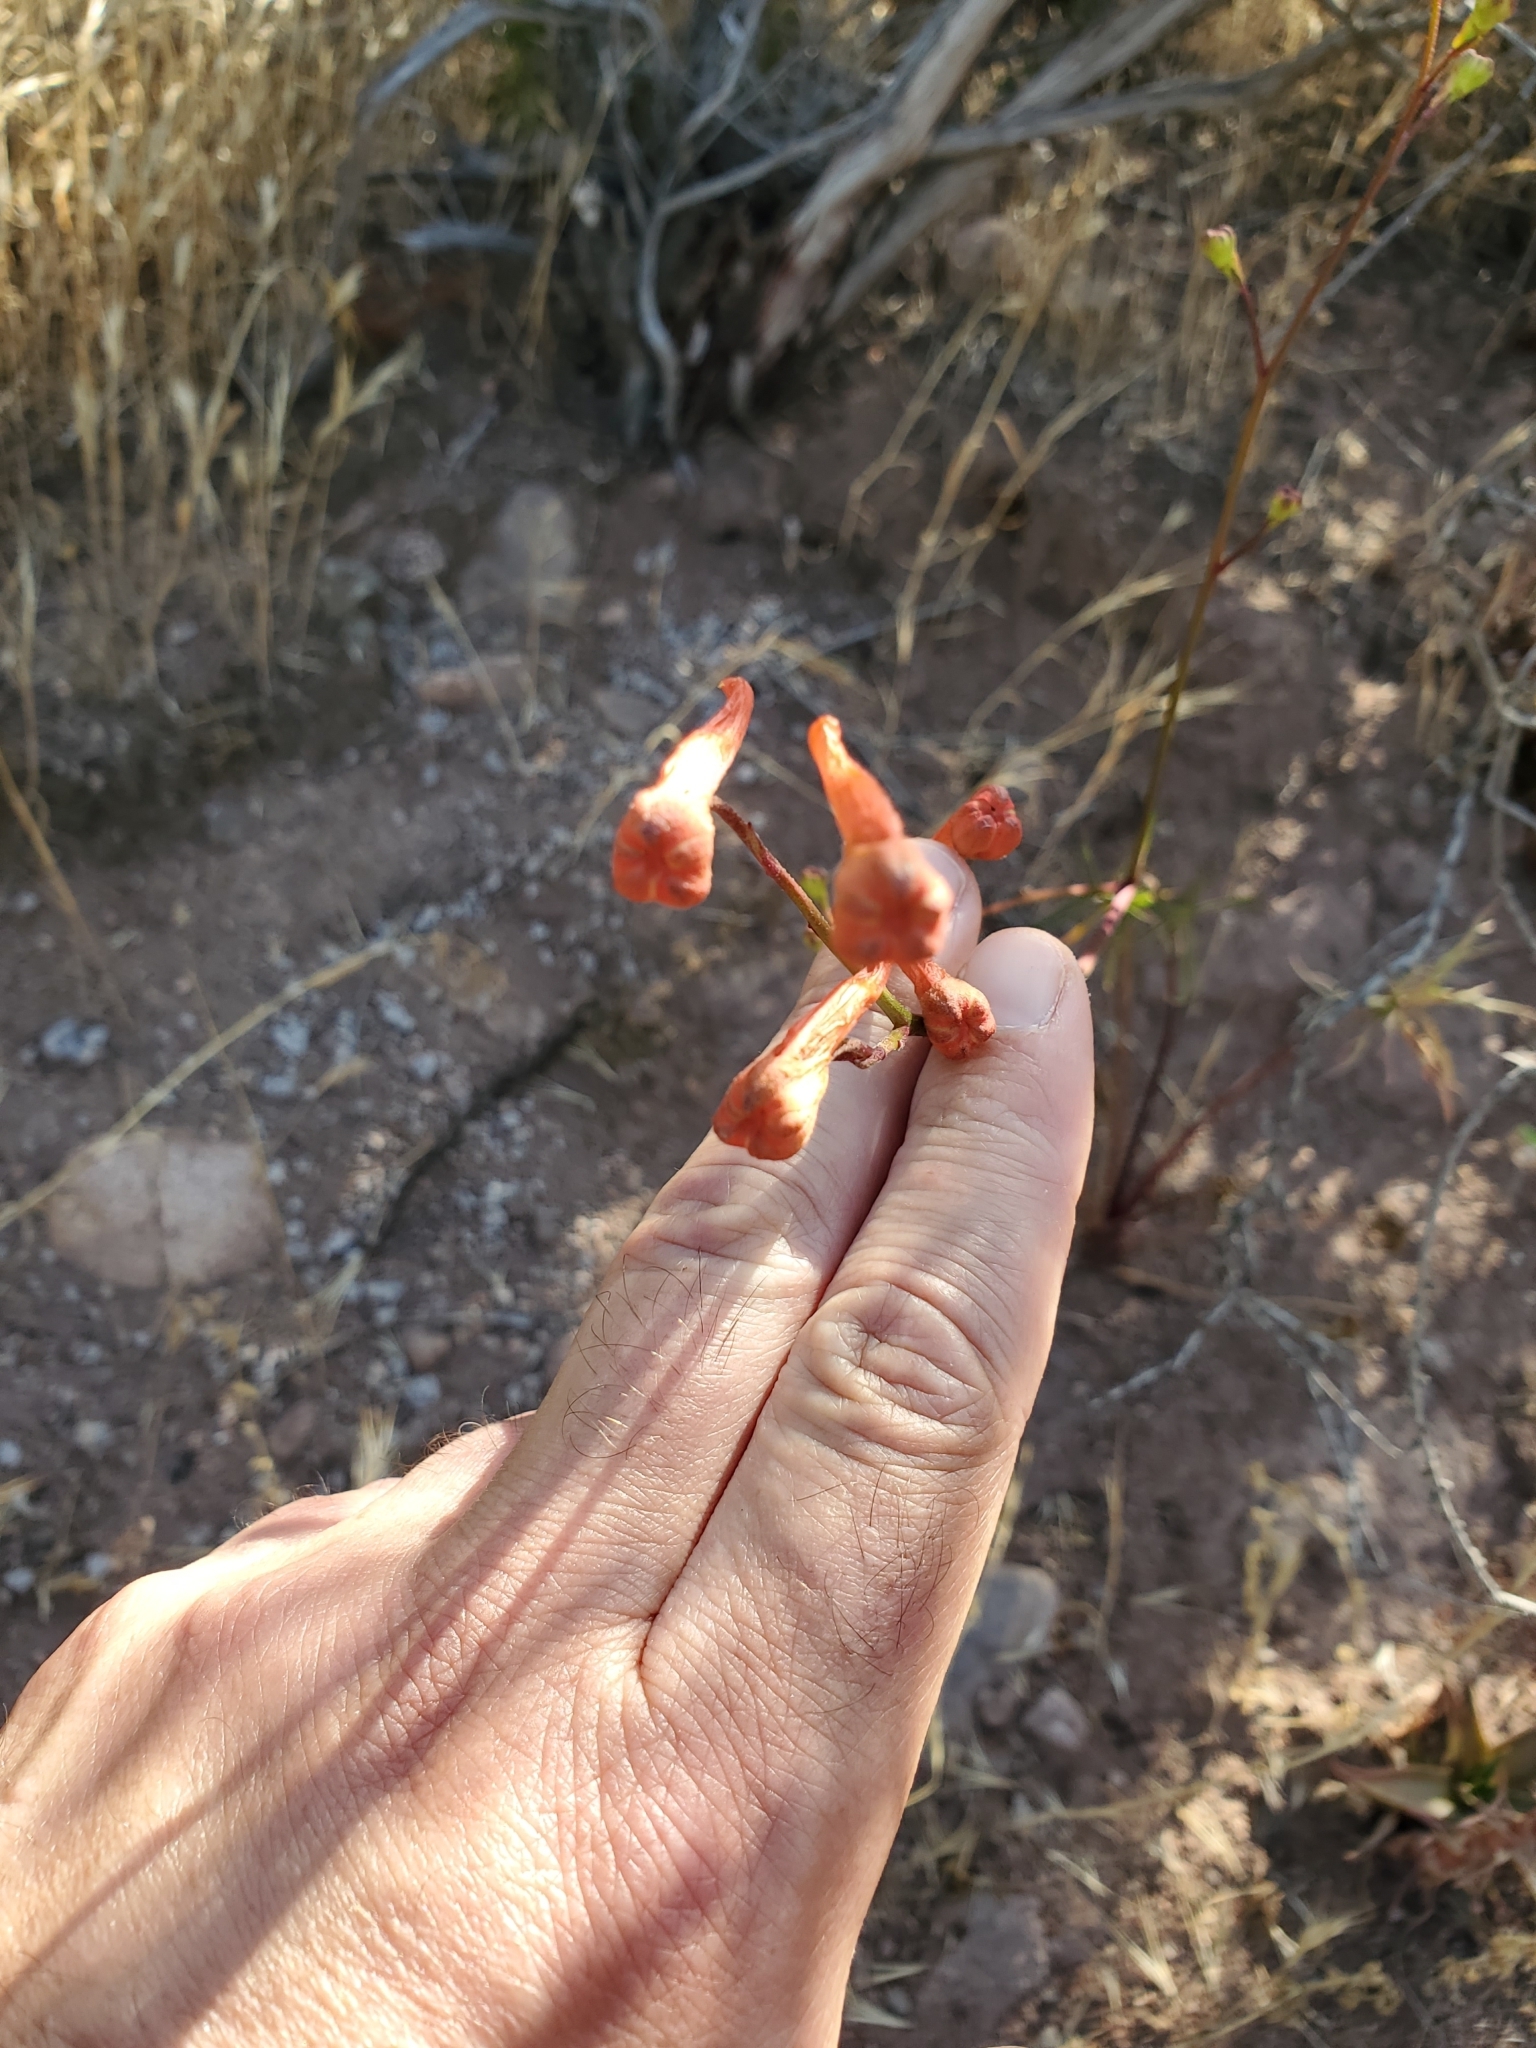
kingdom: Plantae
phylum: Tracheophyta
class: Magnoliopsida
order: Ranunculales
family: Ranunculaceae
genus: Delphinium
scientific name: Delphinium cardinale
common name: Scarlet larkspur
